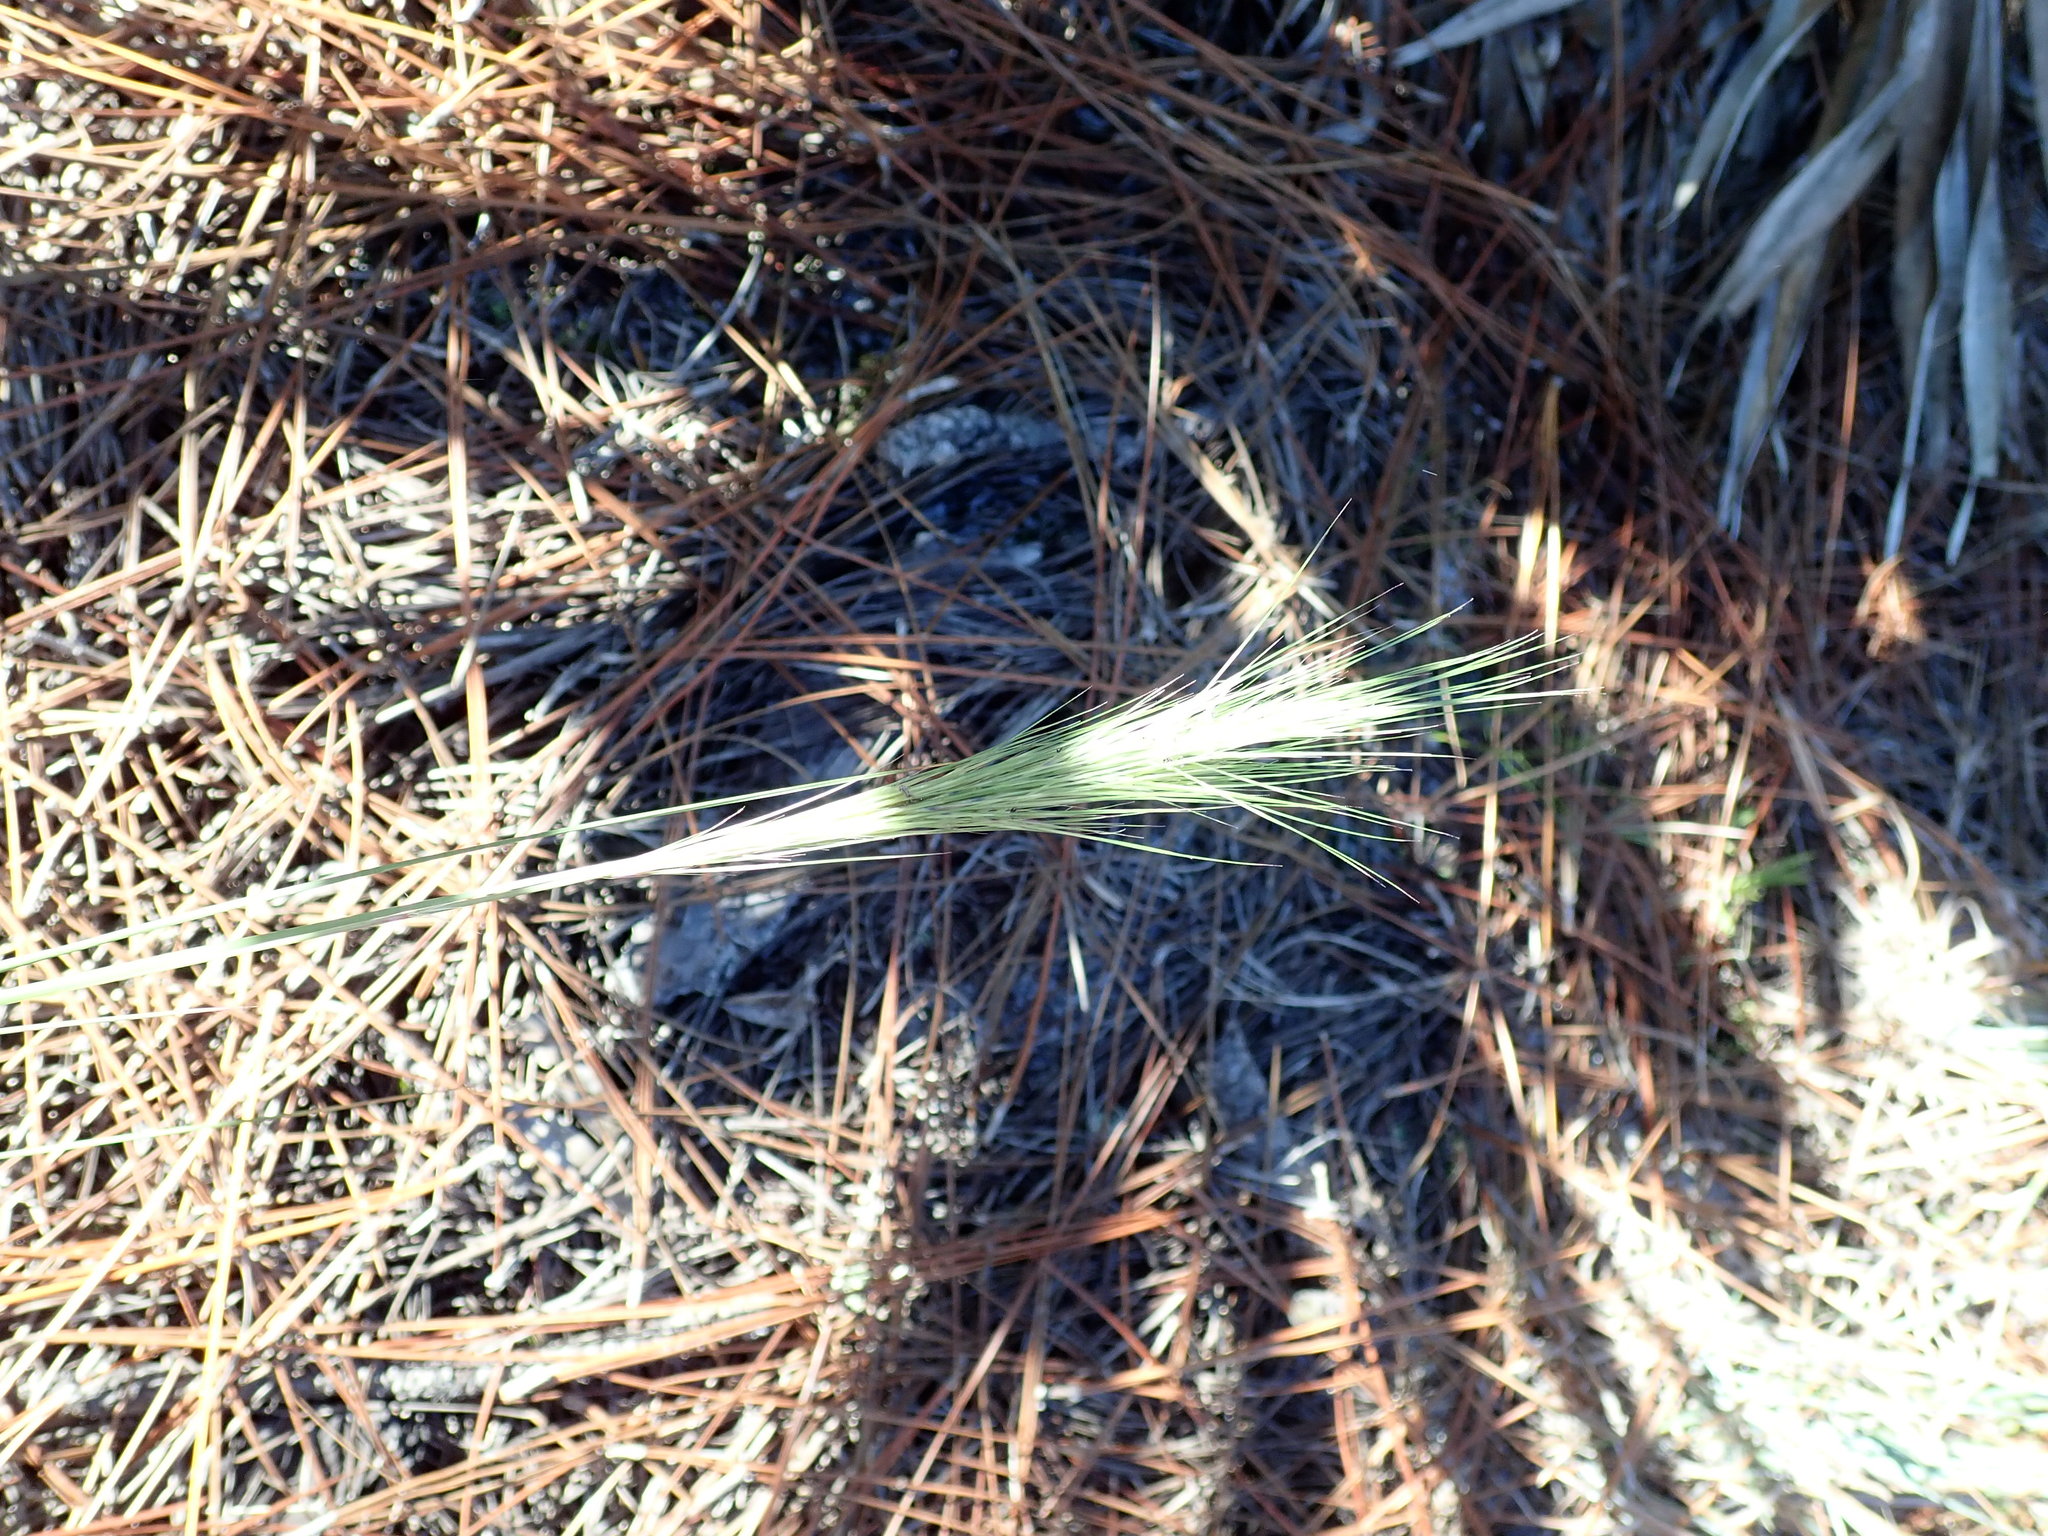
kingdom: Plantae
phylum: Tracheophyta
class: Liliopsida
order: Poales
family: Poaceae
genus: Aristida
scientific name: Aristida spiciformis
